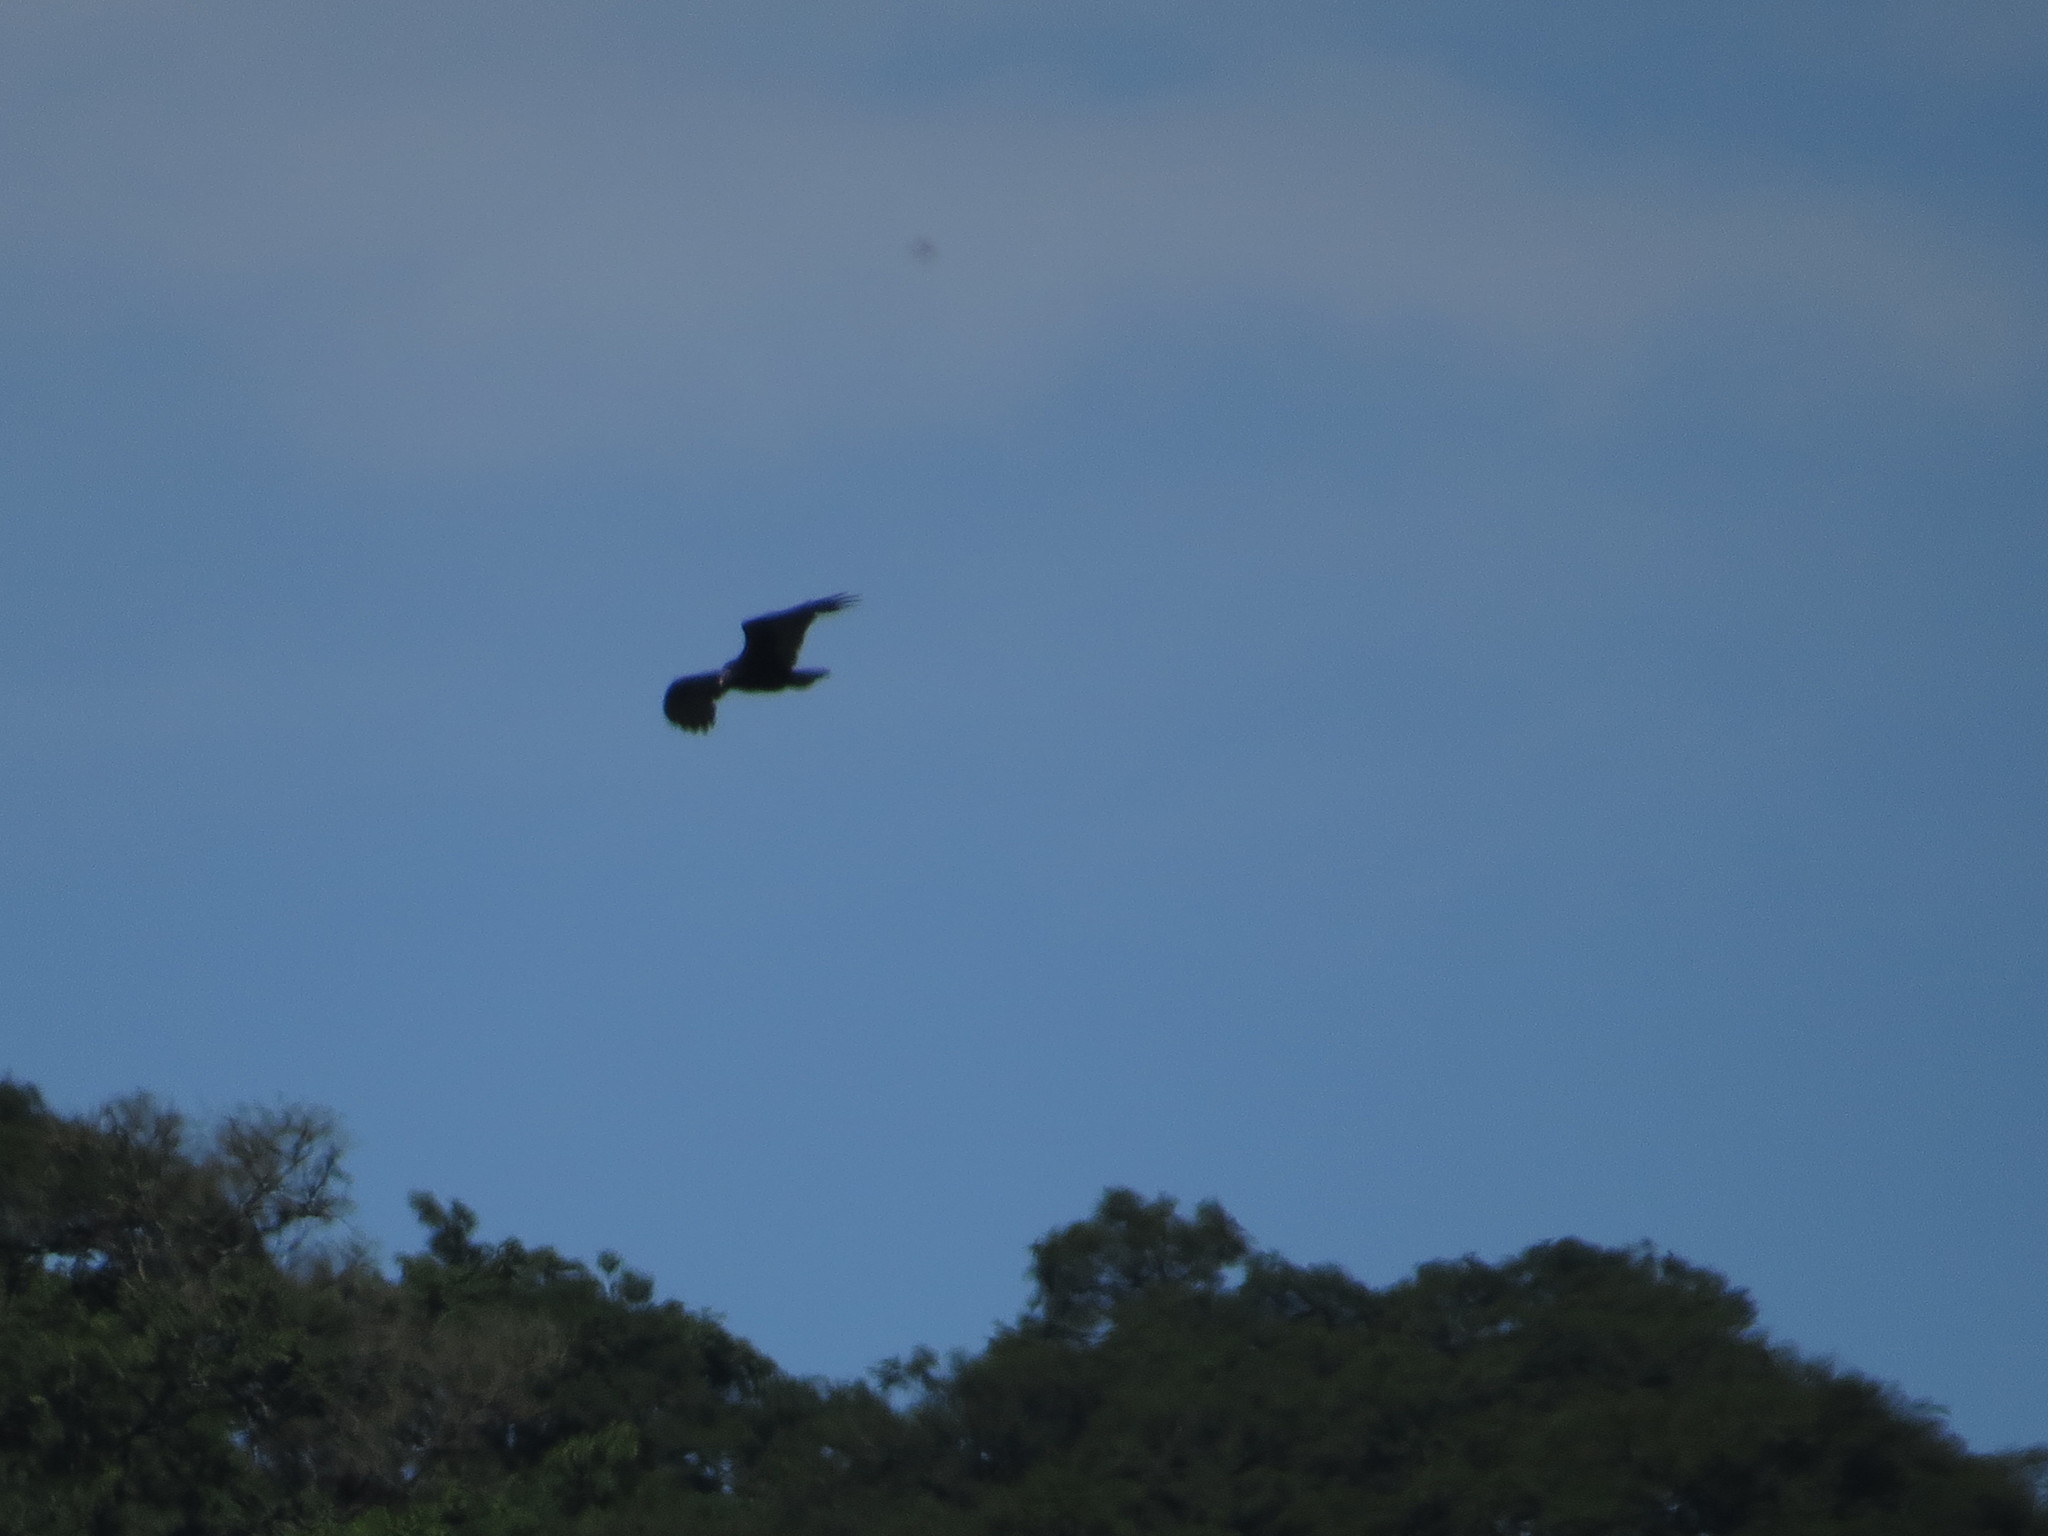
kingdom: Animalia
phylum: Chordata
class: Aves
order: Accipitriformes
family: Cathartidae
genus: Cathartes
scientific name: Cathartes aura
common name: Turkey vulture
